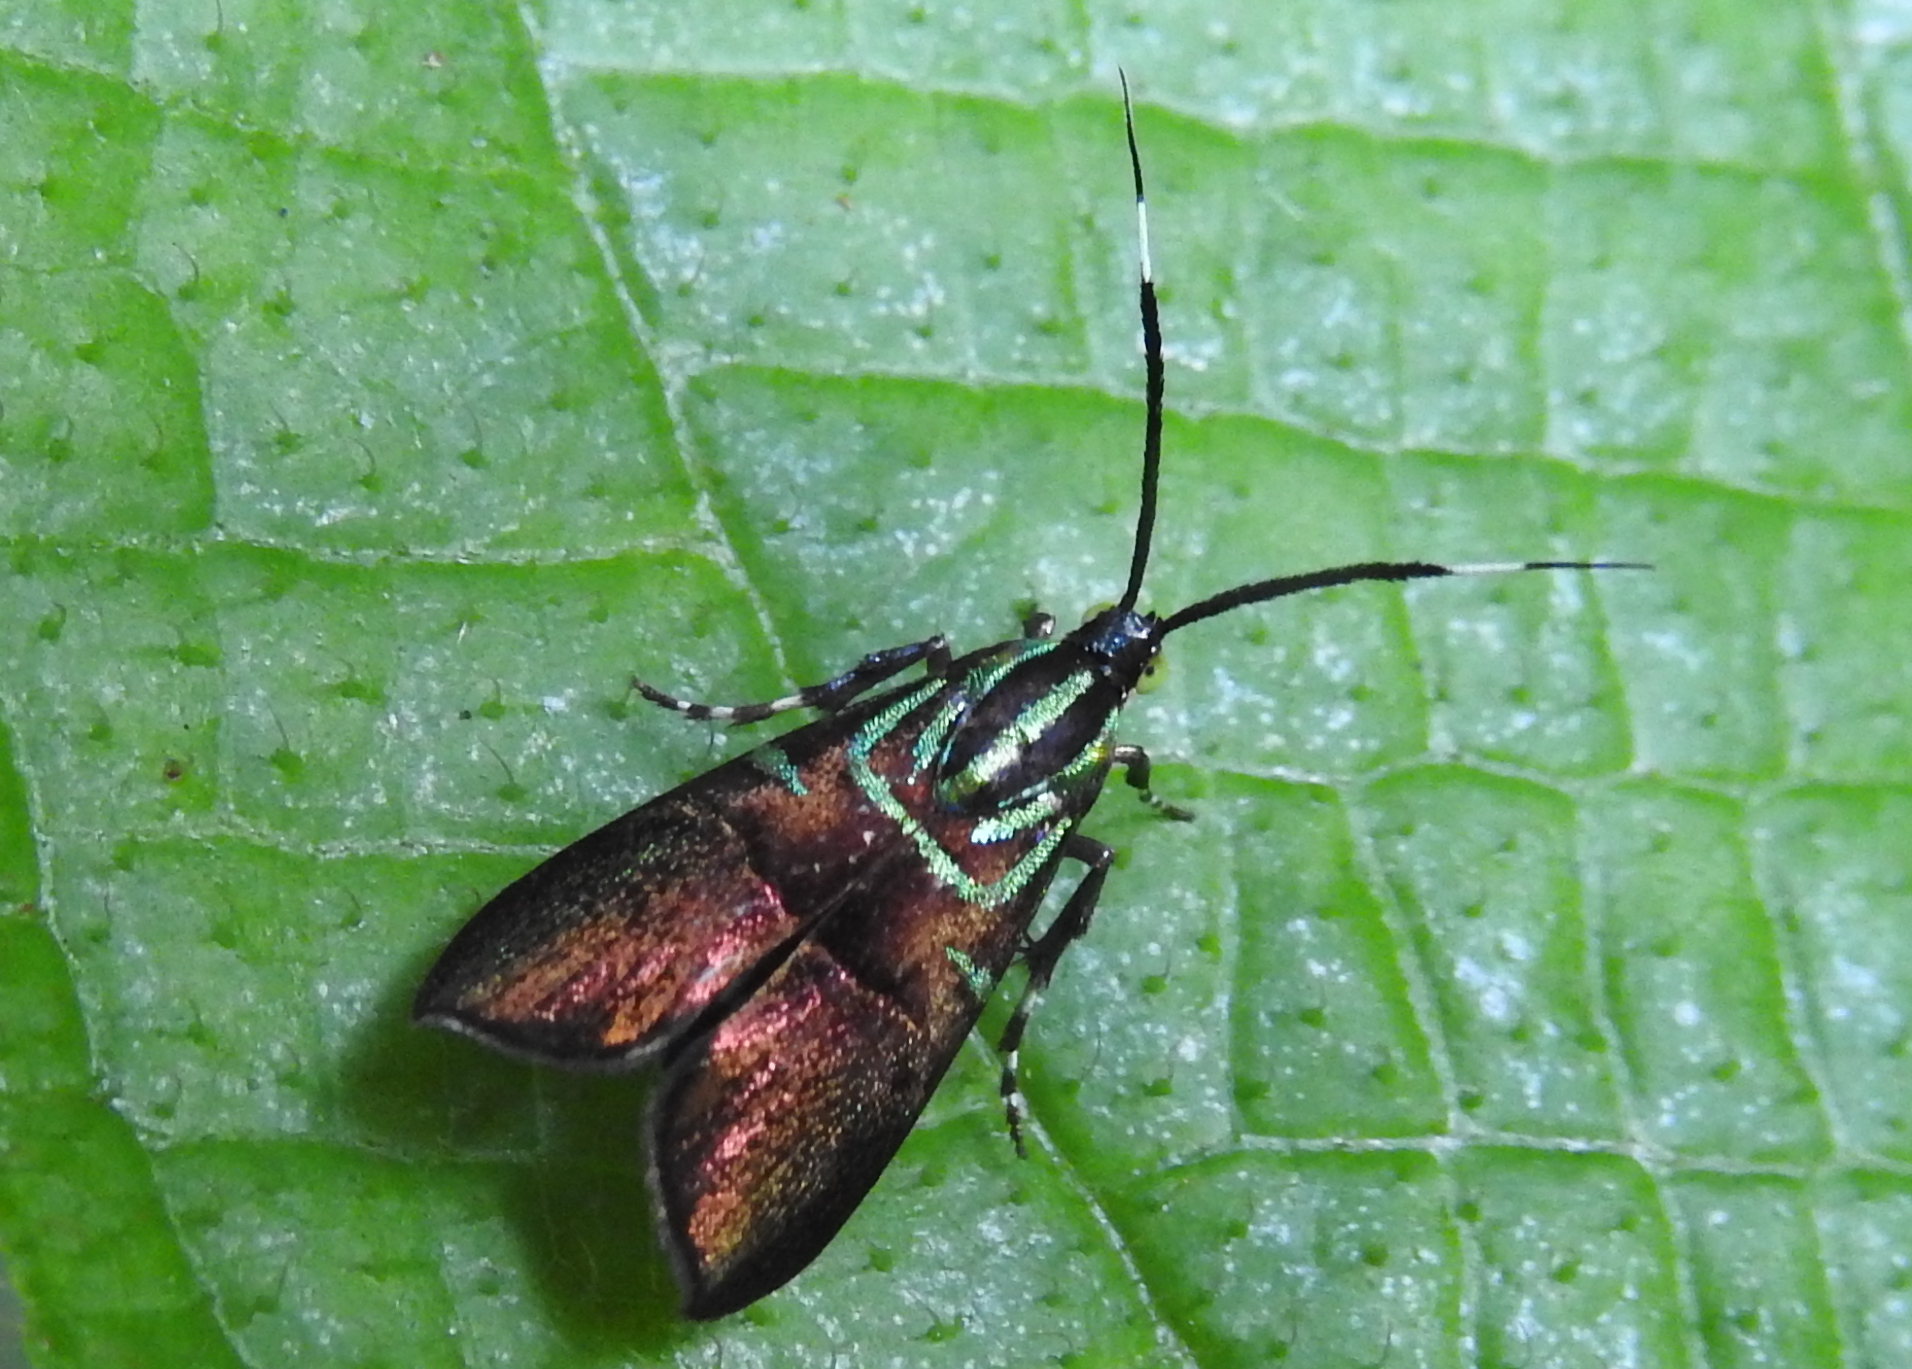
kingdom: Animalia
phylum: Arthropoda
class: Insecta
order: Lepidoptera
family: Choreutidae
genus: Saptha
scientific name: Saptha exanthista
